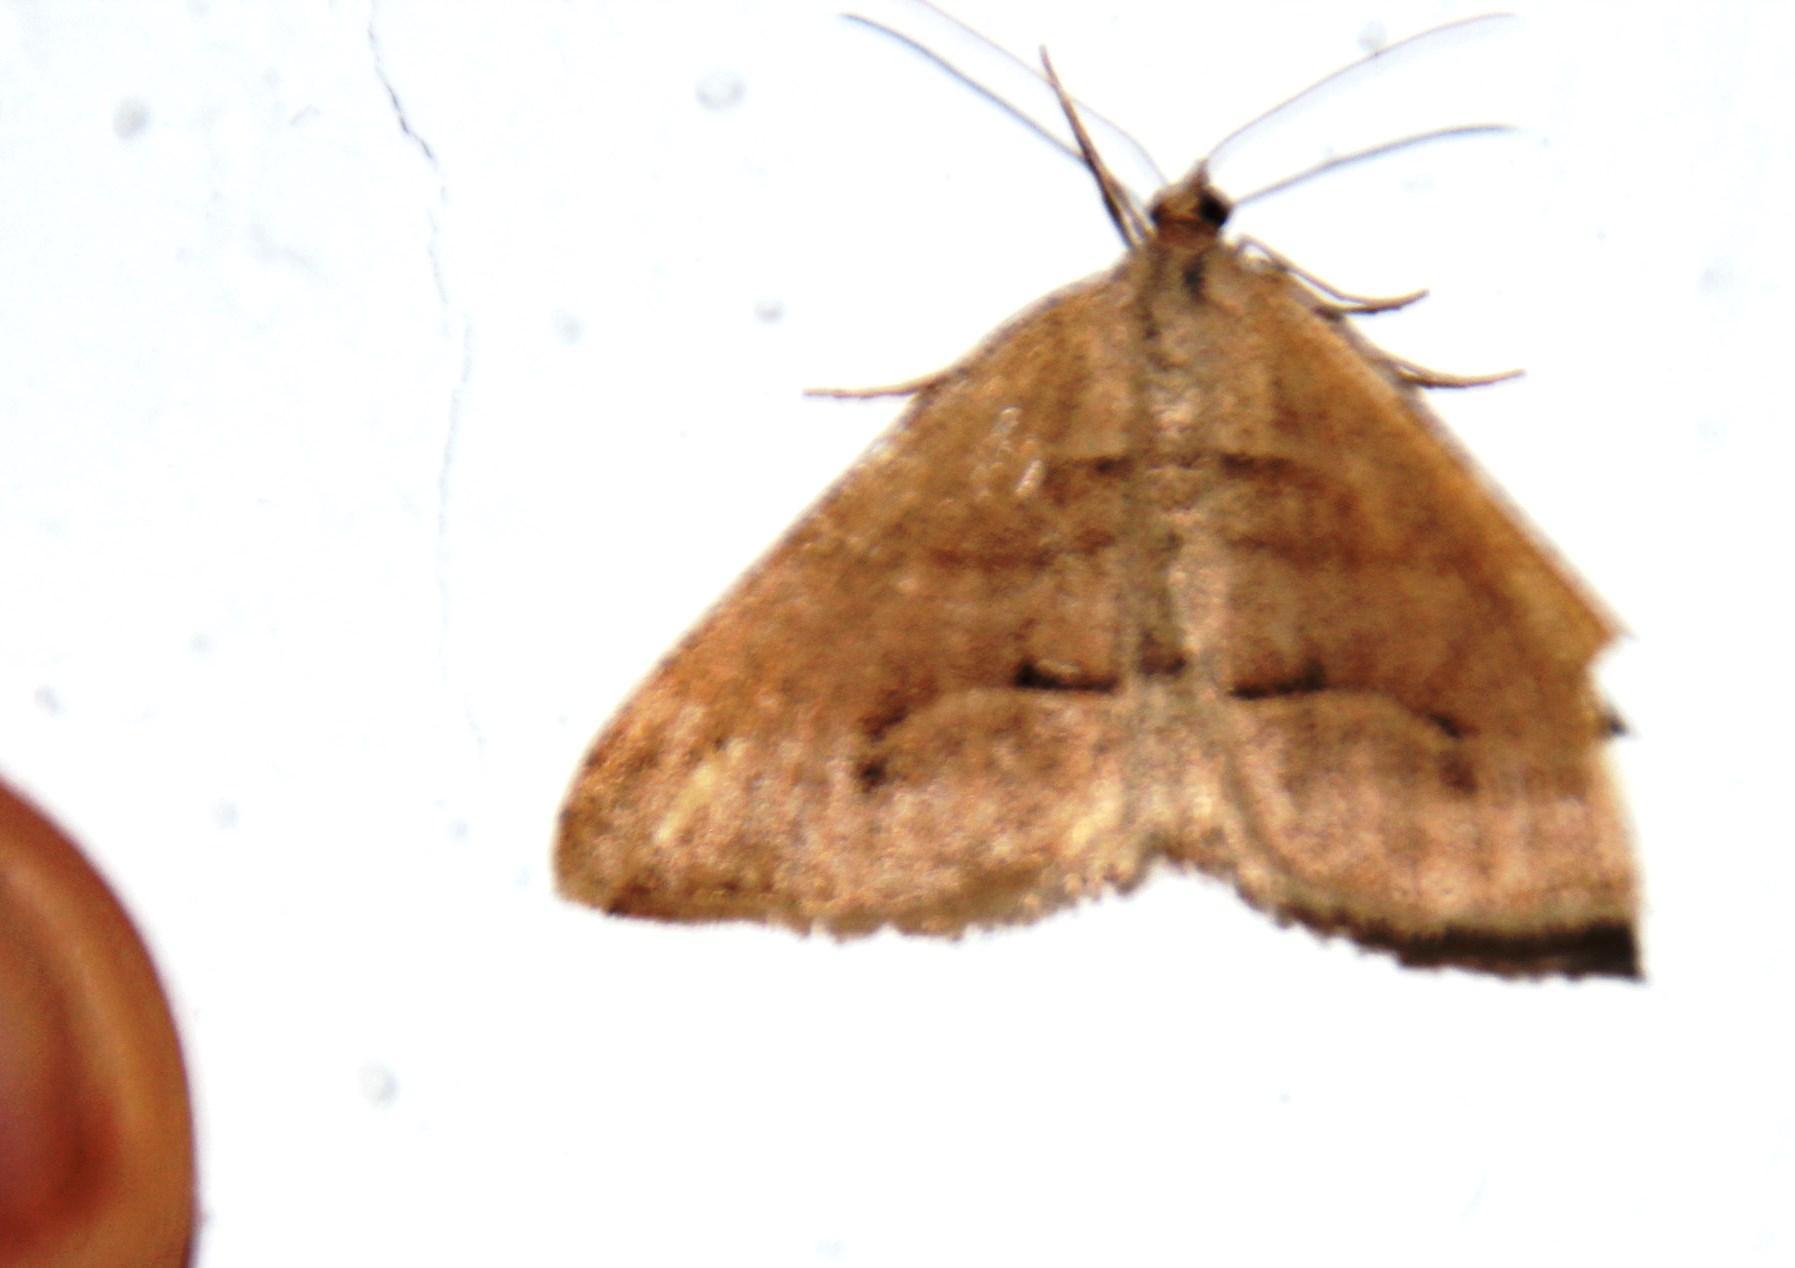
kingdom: Animalia
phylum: Arthropoda
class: Insecta
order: Lepidoptera
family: Geometridae
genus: Chiasmia
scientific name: Chiasmia subcurvaria
